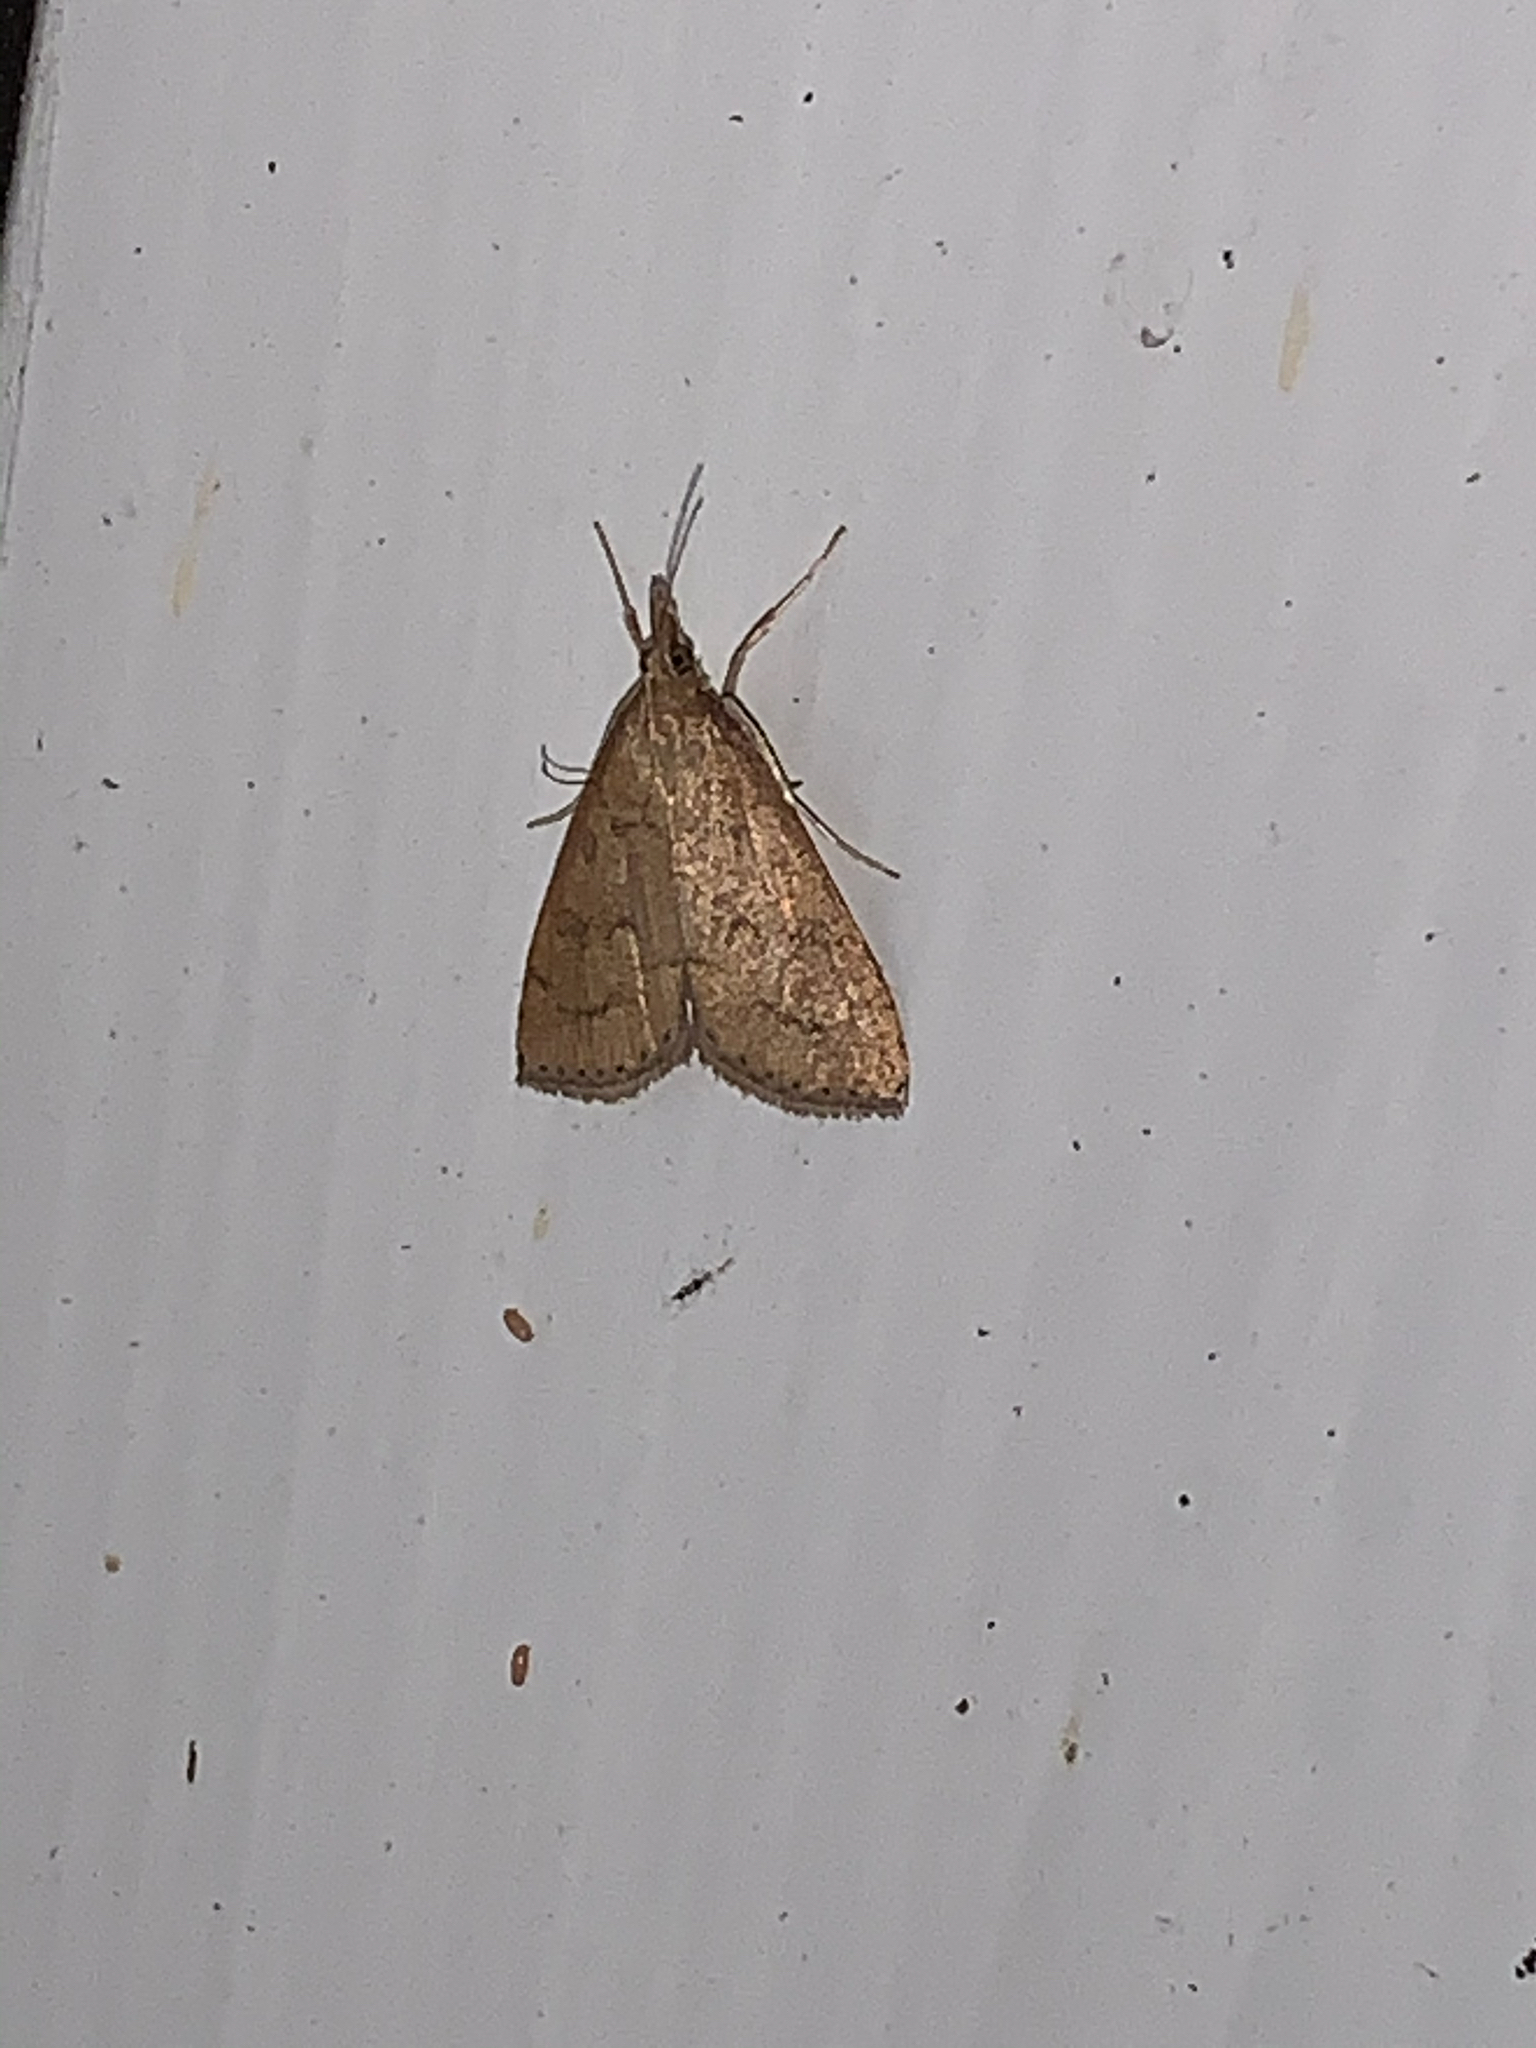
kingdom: Animalia
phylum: Arthropoda
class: Insecta
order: Lepidoptera
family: Crambidae
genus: Udea
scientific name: Udea rubigalis
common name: Celery leaftier moth
